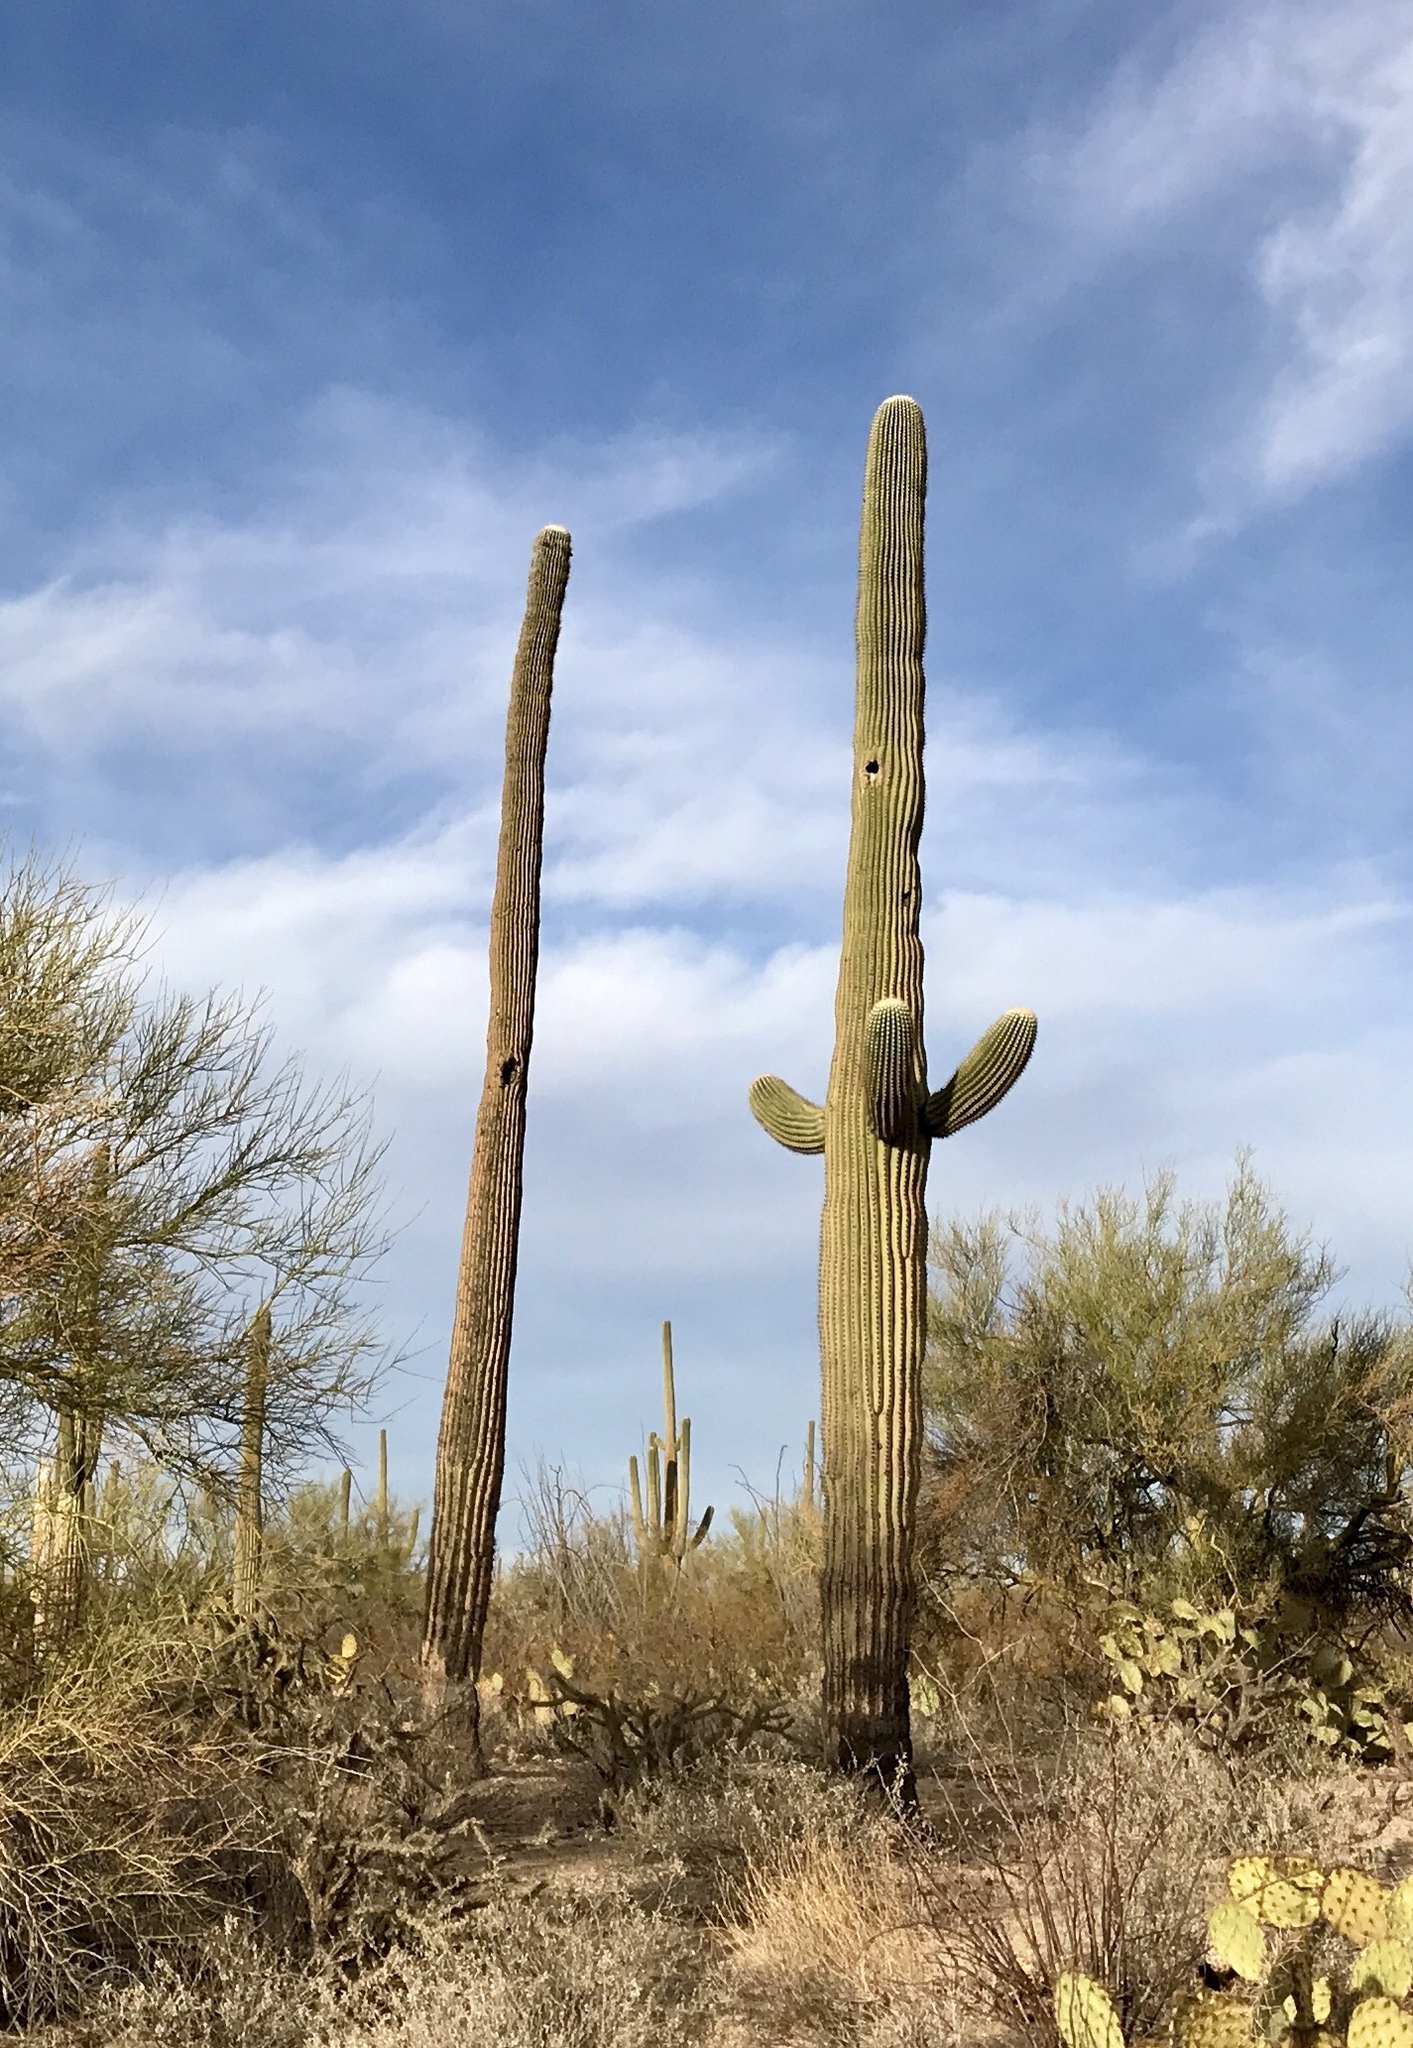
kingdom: Plantae
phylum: Tracheophyta
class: Magnoliopsida
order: Caryophyllales
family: Cactaceae
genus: Carnegiea
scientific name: Carnegiea gigantea
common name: Saguaro
